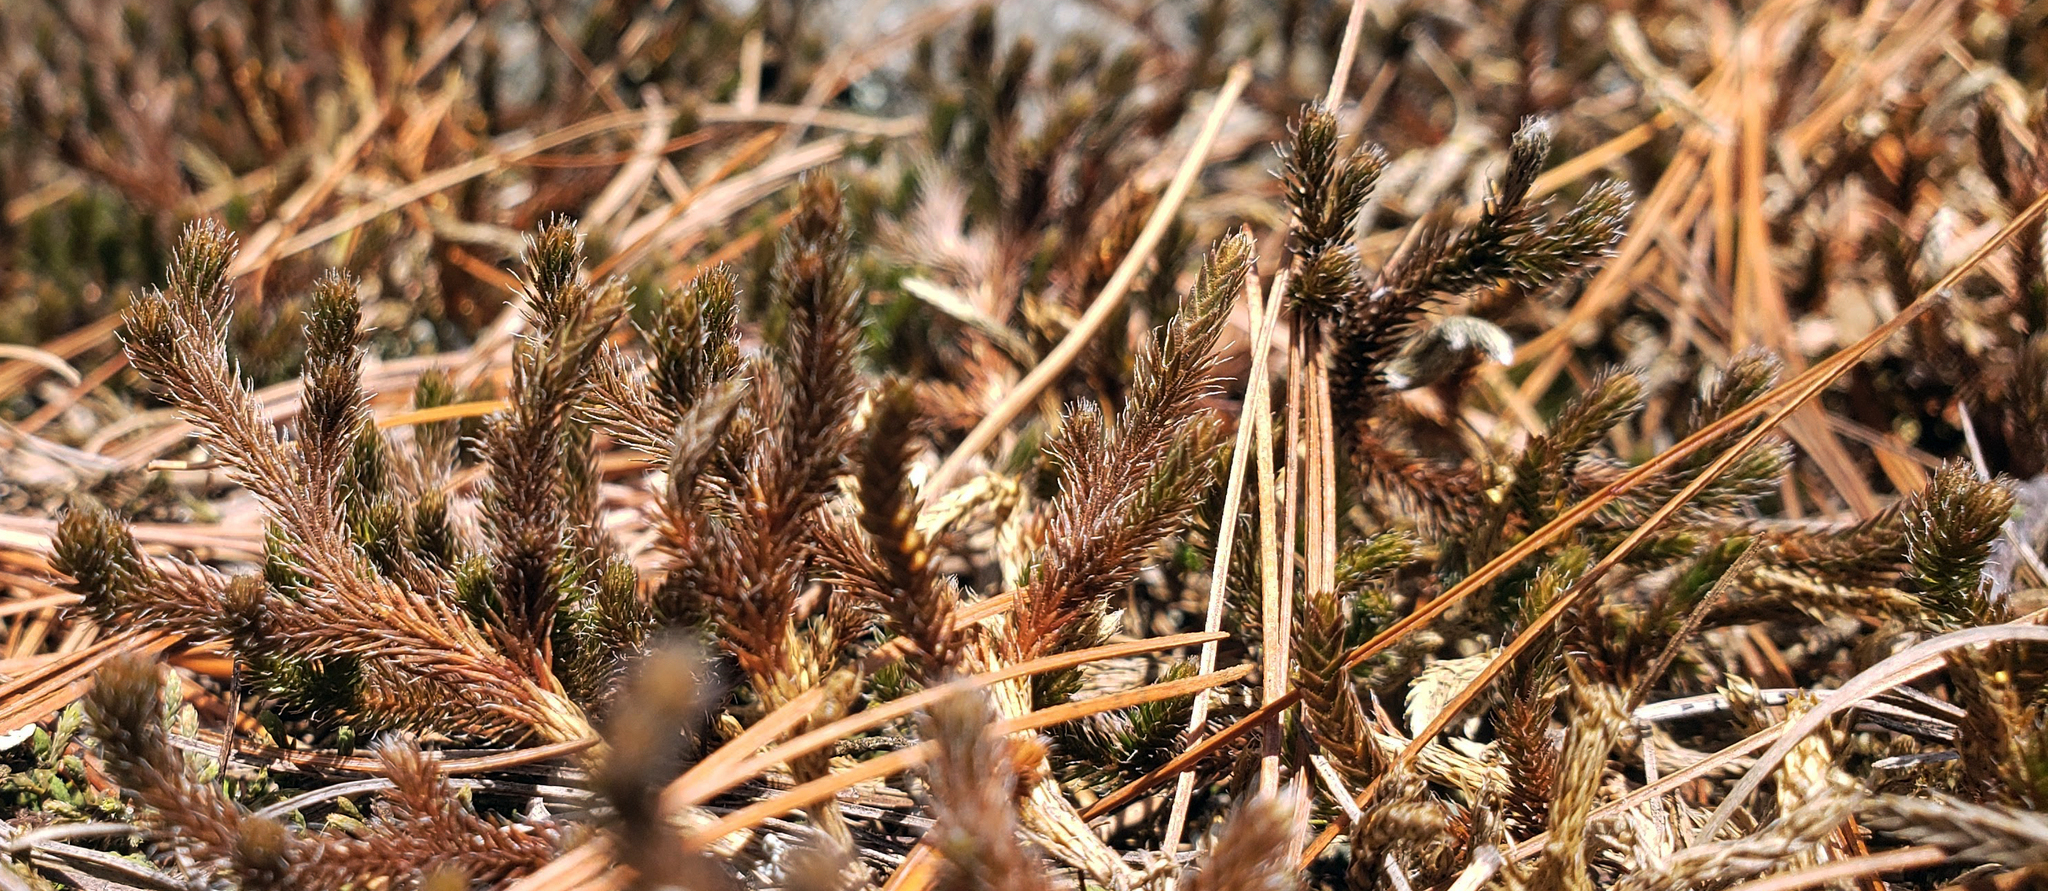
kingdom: Plantae
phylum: Tracheophyta
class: Lycopodiopsida
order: Selaginellales
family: Selaginellaceae
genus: Selaginella
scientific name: Selaginella rupestris
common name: Dwarf spikemoss
